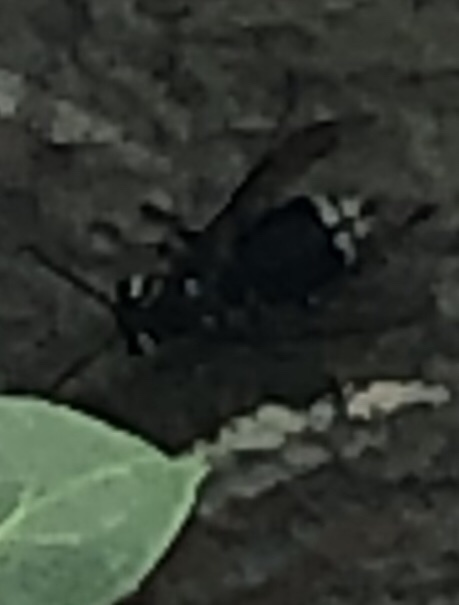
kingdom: Animalia
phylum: Arthropoda
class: Insecta
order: Hymenoptera
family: Vespidae
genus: Dolichovespula
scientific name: Dolichovespula maculata
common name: Bald-faced hornet
